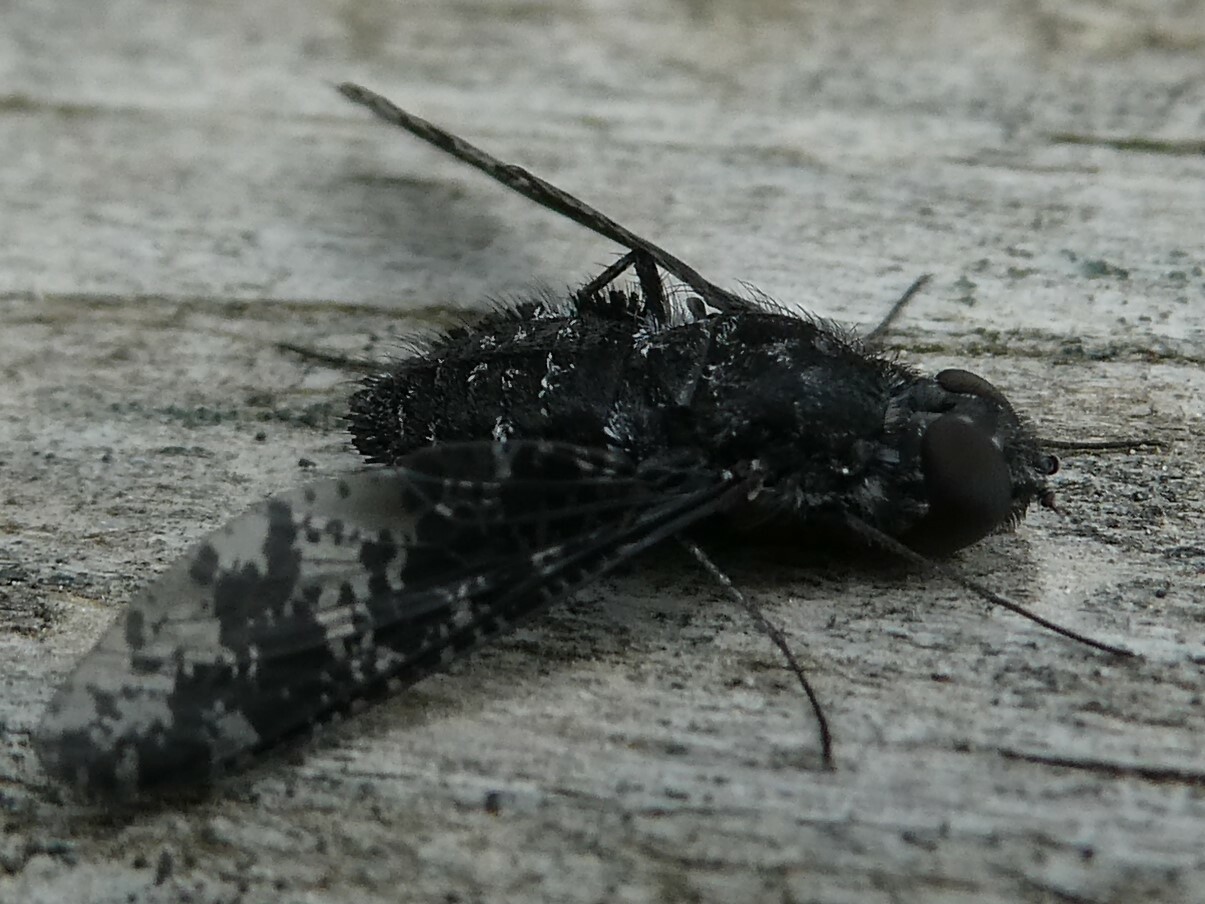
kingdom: Animalia
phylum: Arthropoda
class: Insecta
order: Diptera
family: Bombyliidae
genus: Anthrax
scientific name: Anthrax irroratus
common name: Spotted bee fly
